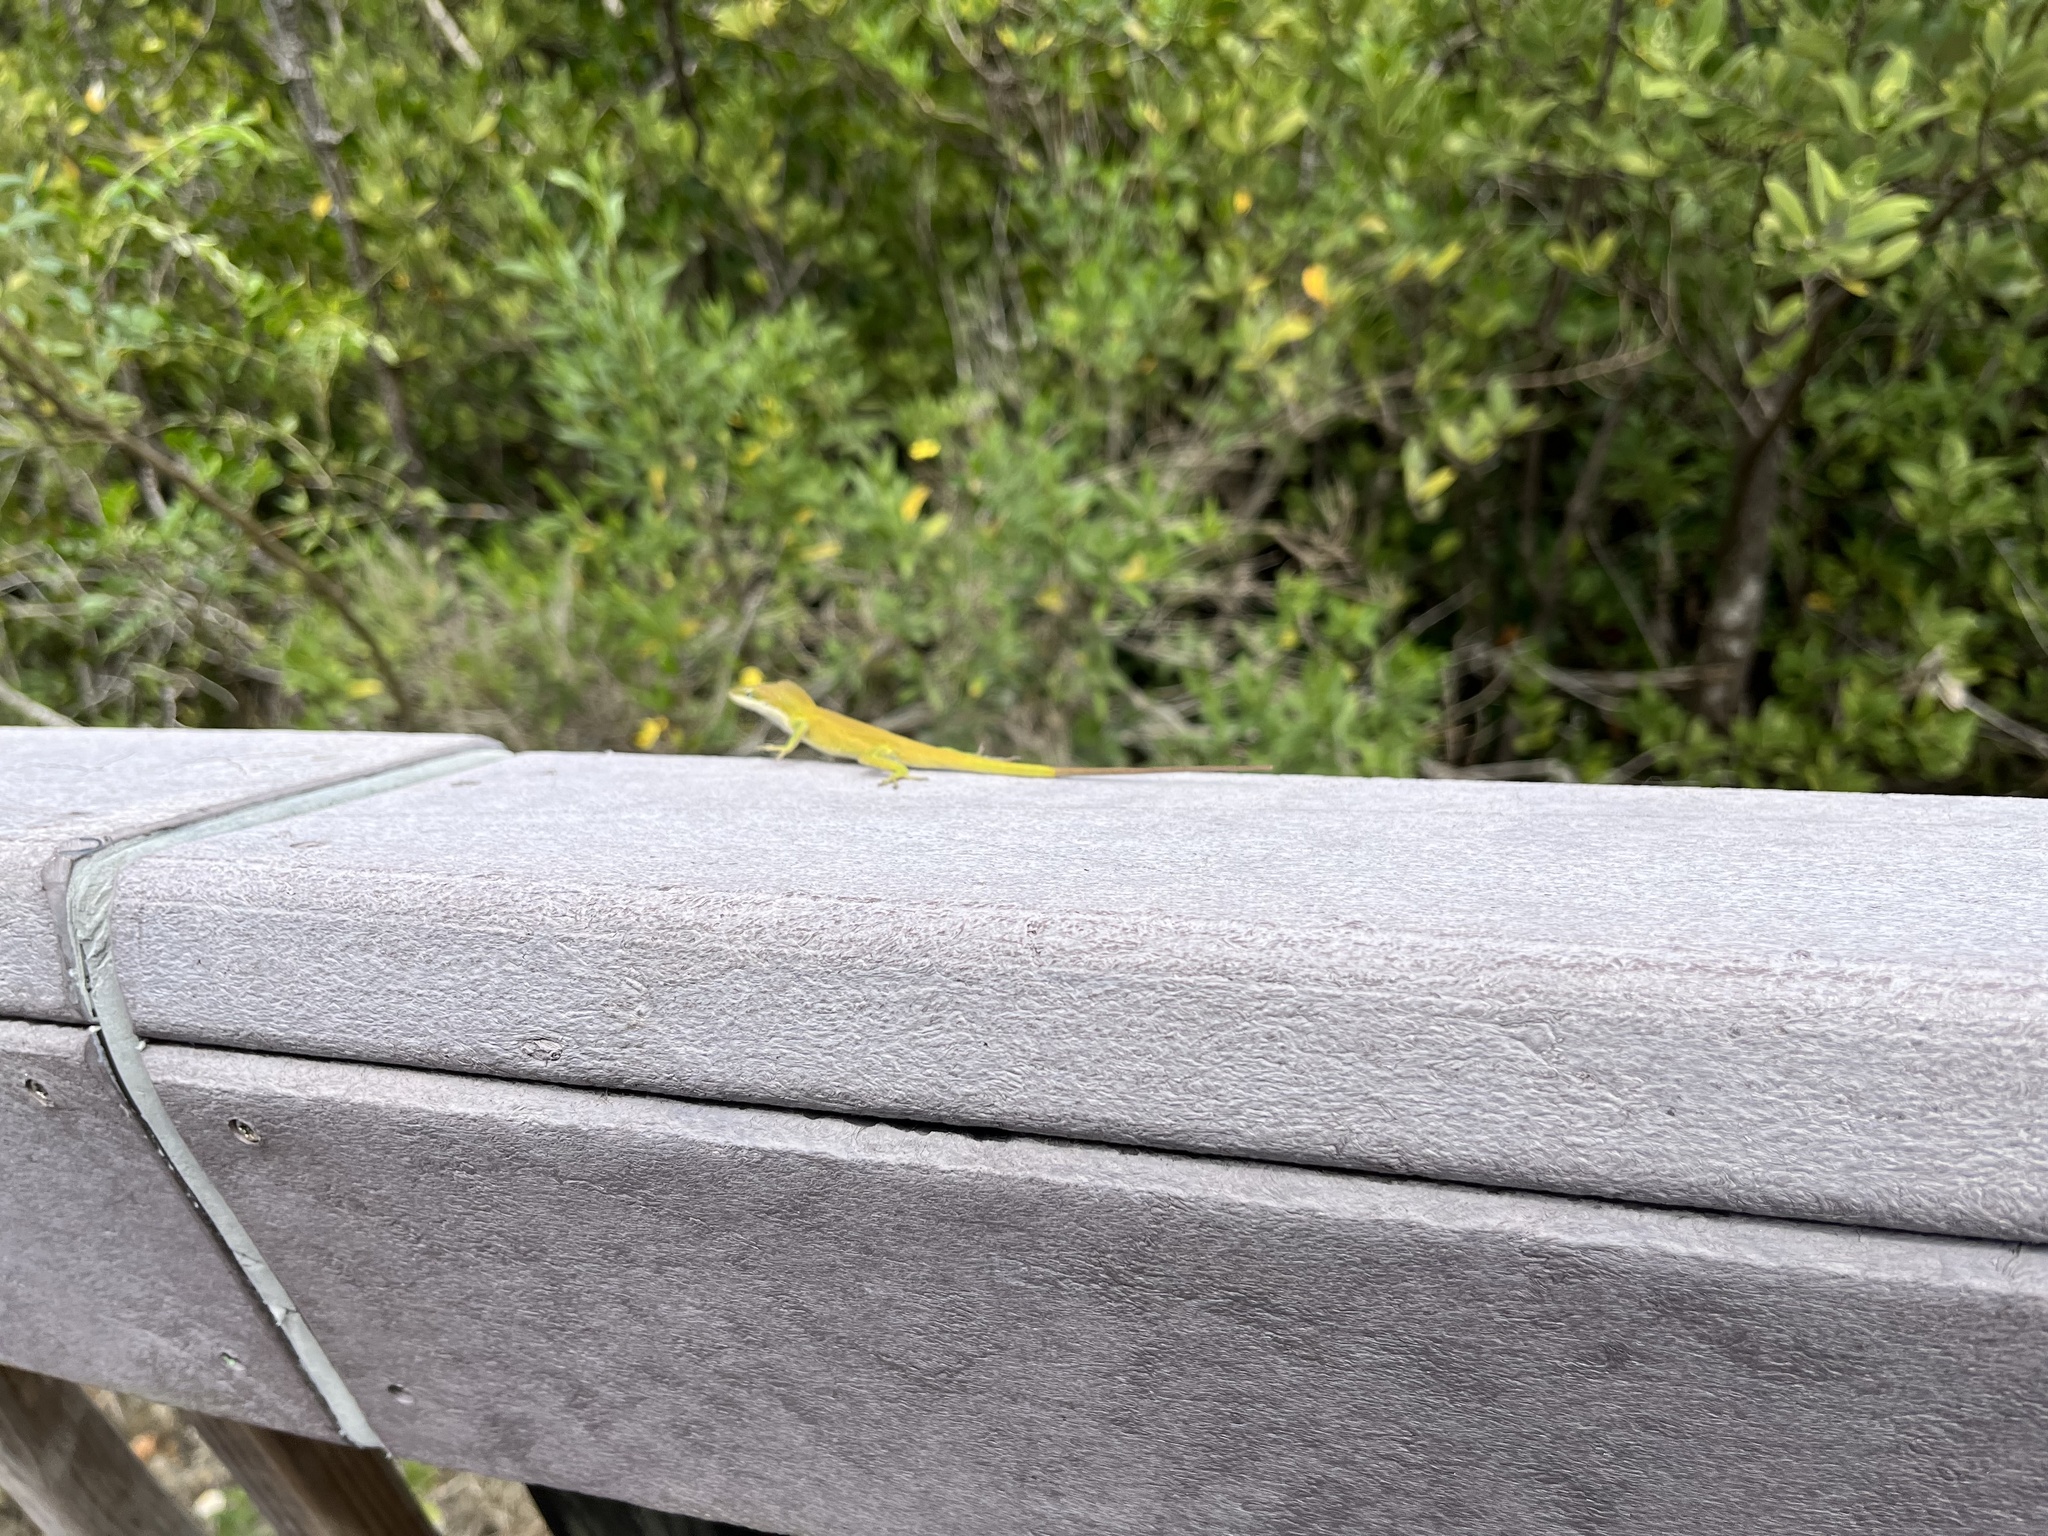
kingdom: Animalia
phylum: Chordata
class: Squamata
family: Dactyloidae
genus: Anolis
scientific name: Anolis carolinensis
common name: Green anole
